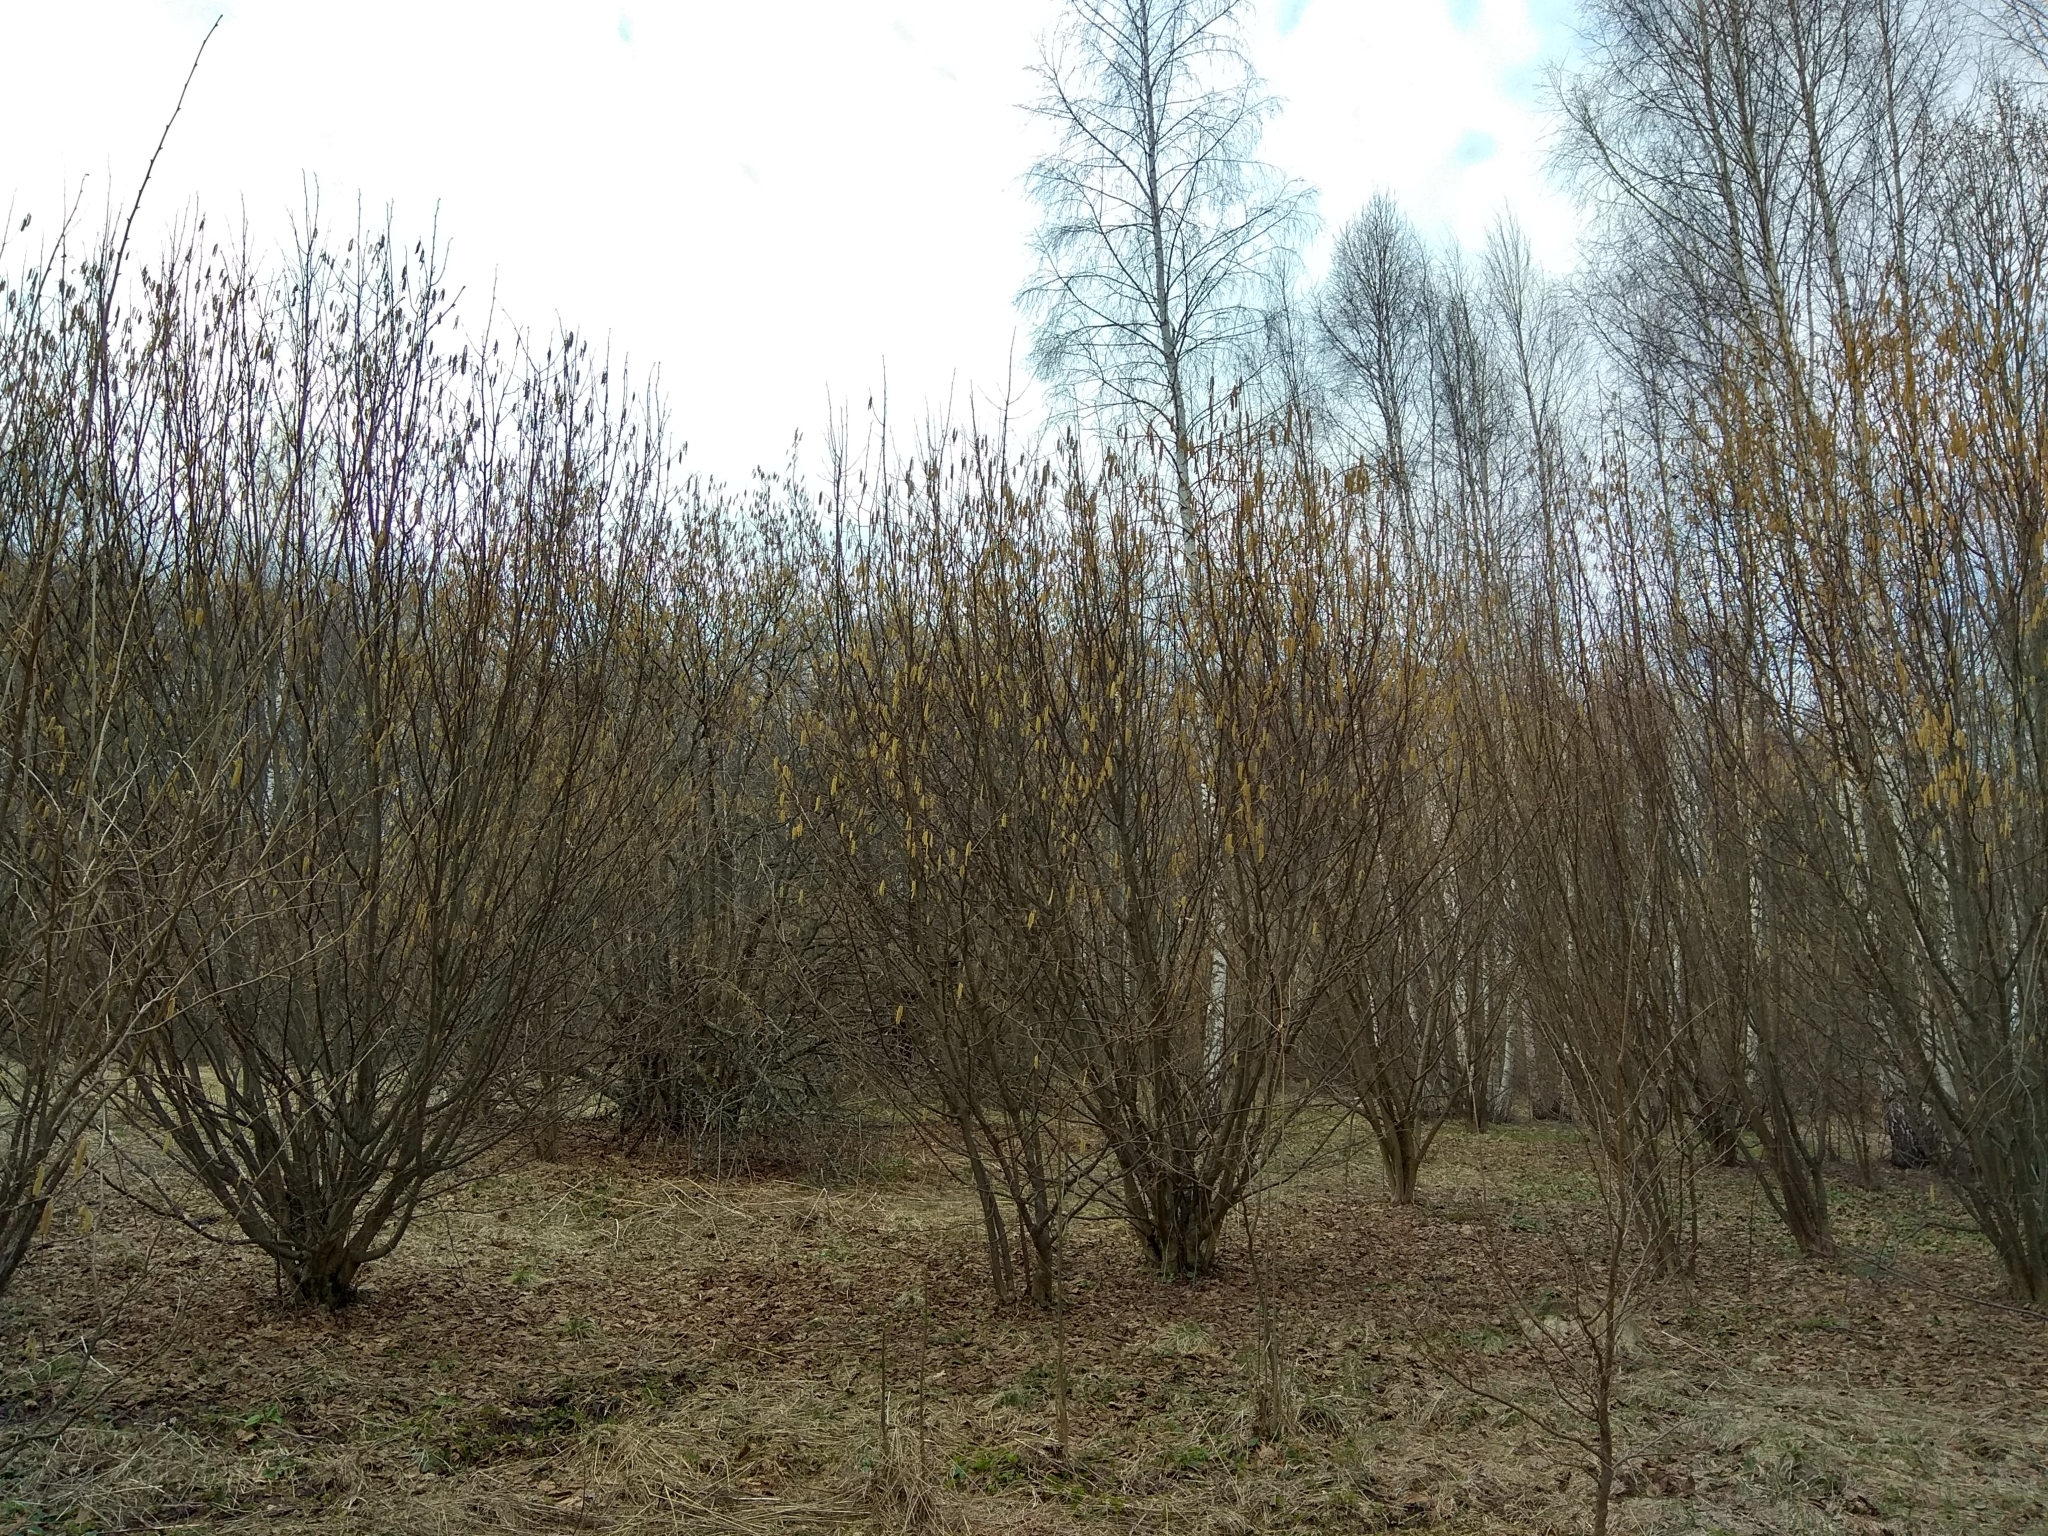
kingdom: Plantae
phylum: Tracheophyta
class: Magnoliopsida
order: Fagales
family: Betulaceae
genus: Corylus
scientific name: Corylus avellana
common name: European hazel
